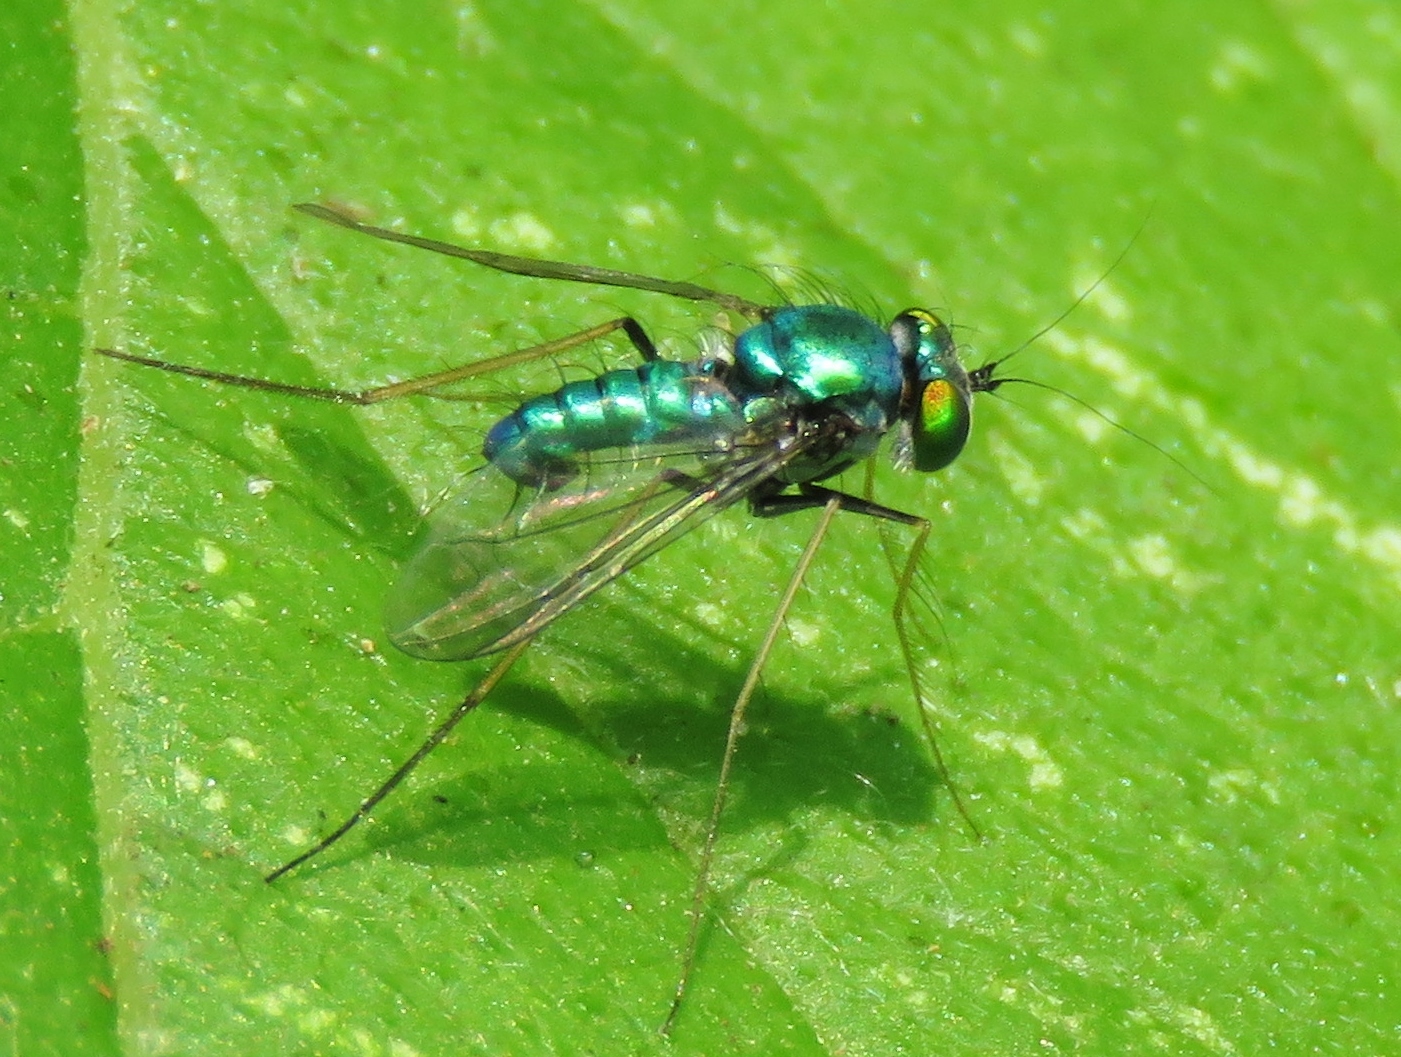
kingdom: Animalia
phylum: Arthropoda
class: Insecta
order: Diptera
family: Dolichopodidae
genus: Condylostylus
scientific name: Condylostylus comatus
